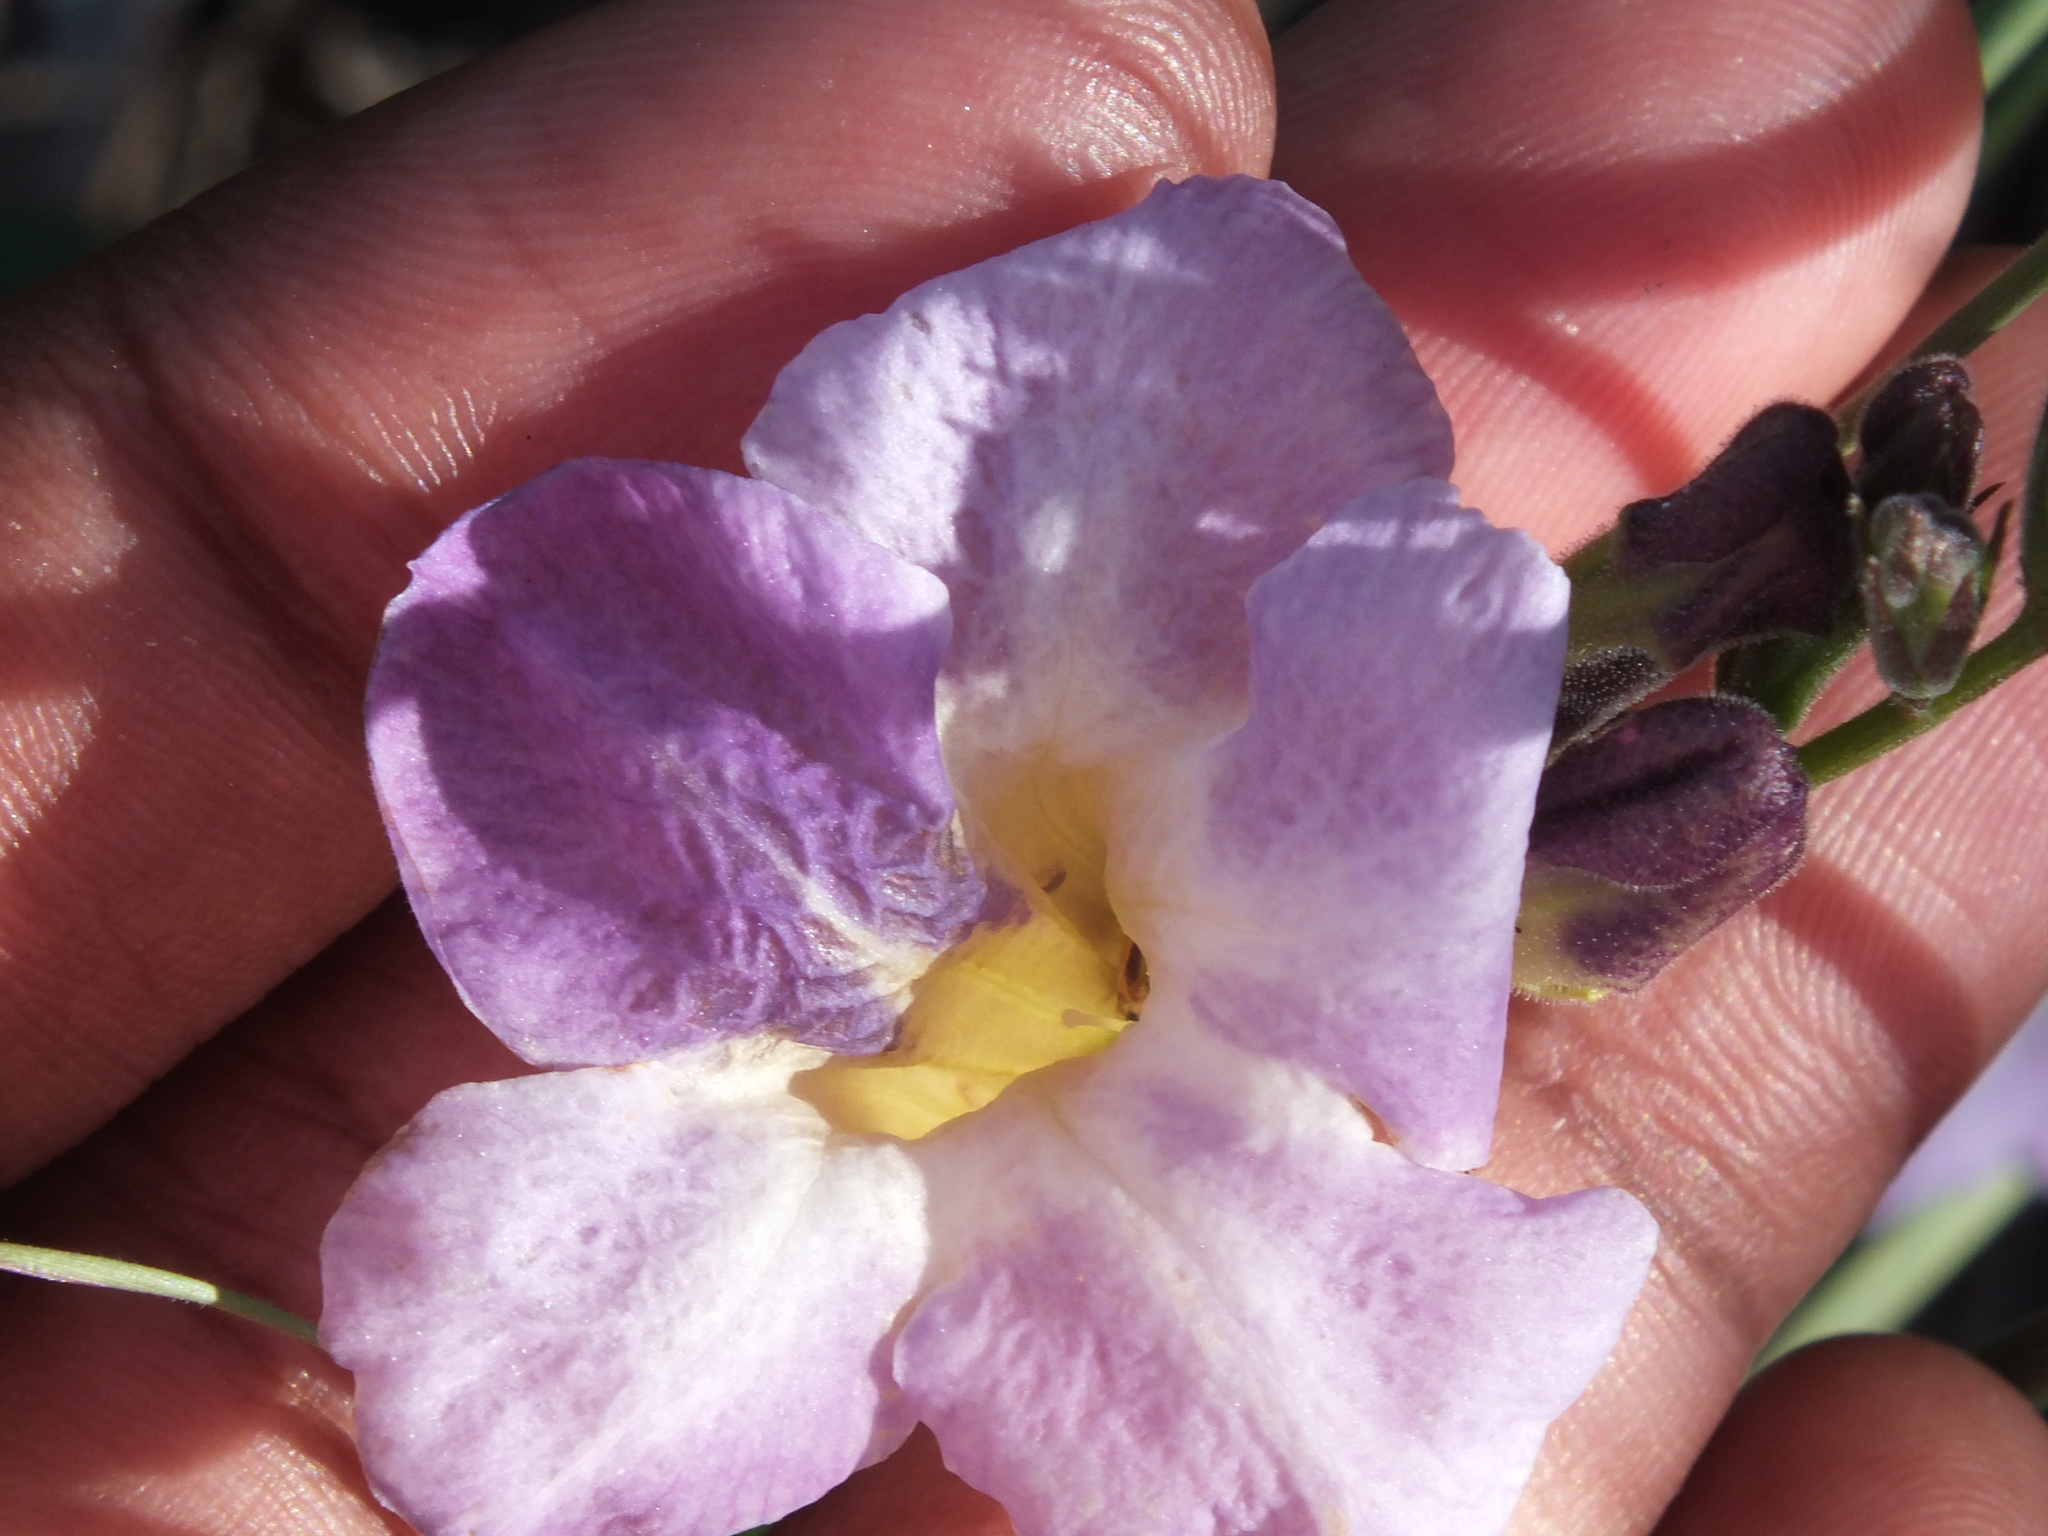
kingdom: Plantae
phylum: Tracheophyta
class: Magnoliopsida
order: Lamiales
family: Acanthaceae
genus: Asystasia
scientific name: Asystasia gangetica
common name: Chinese violet
